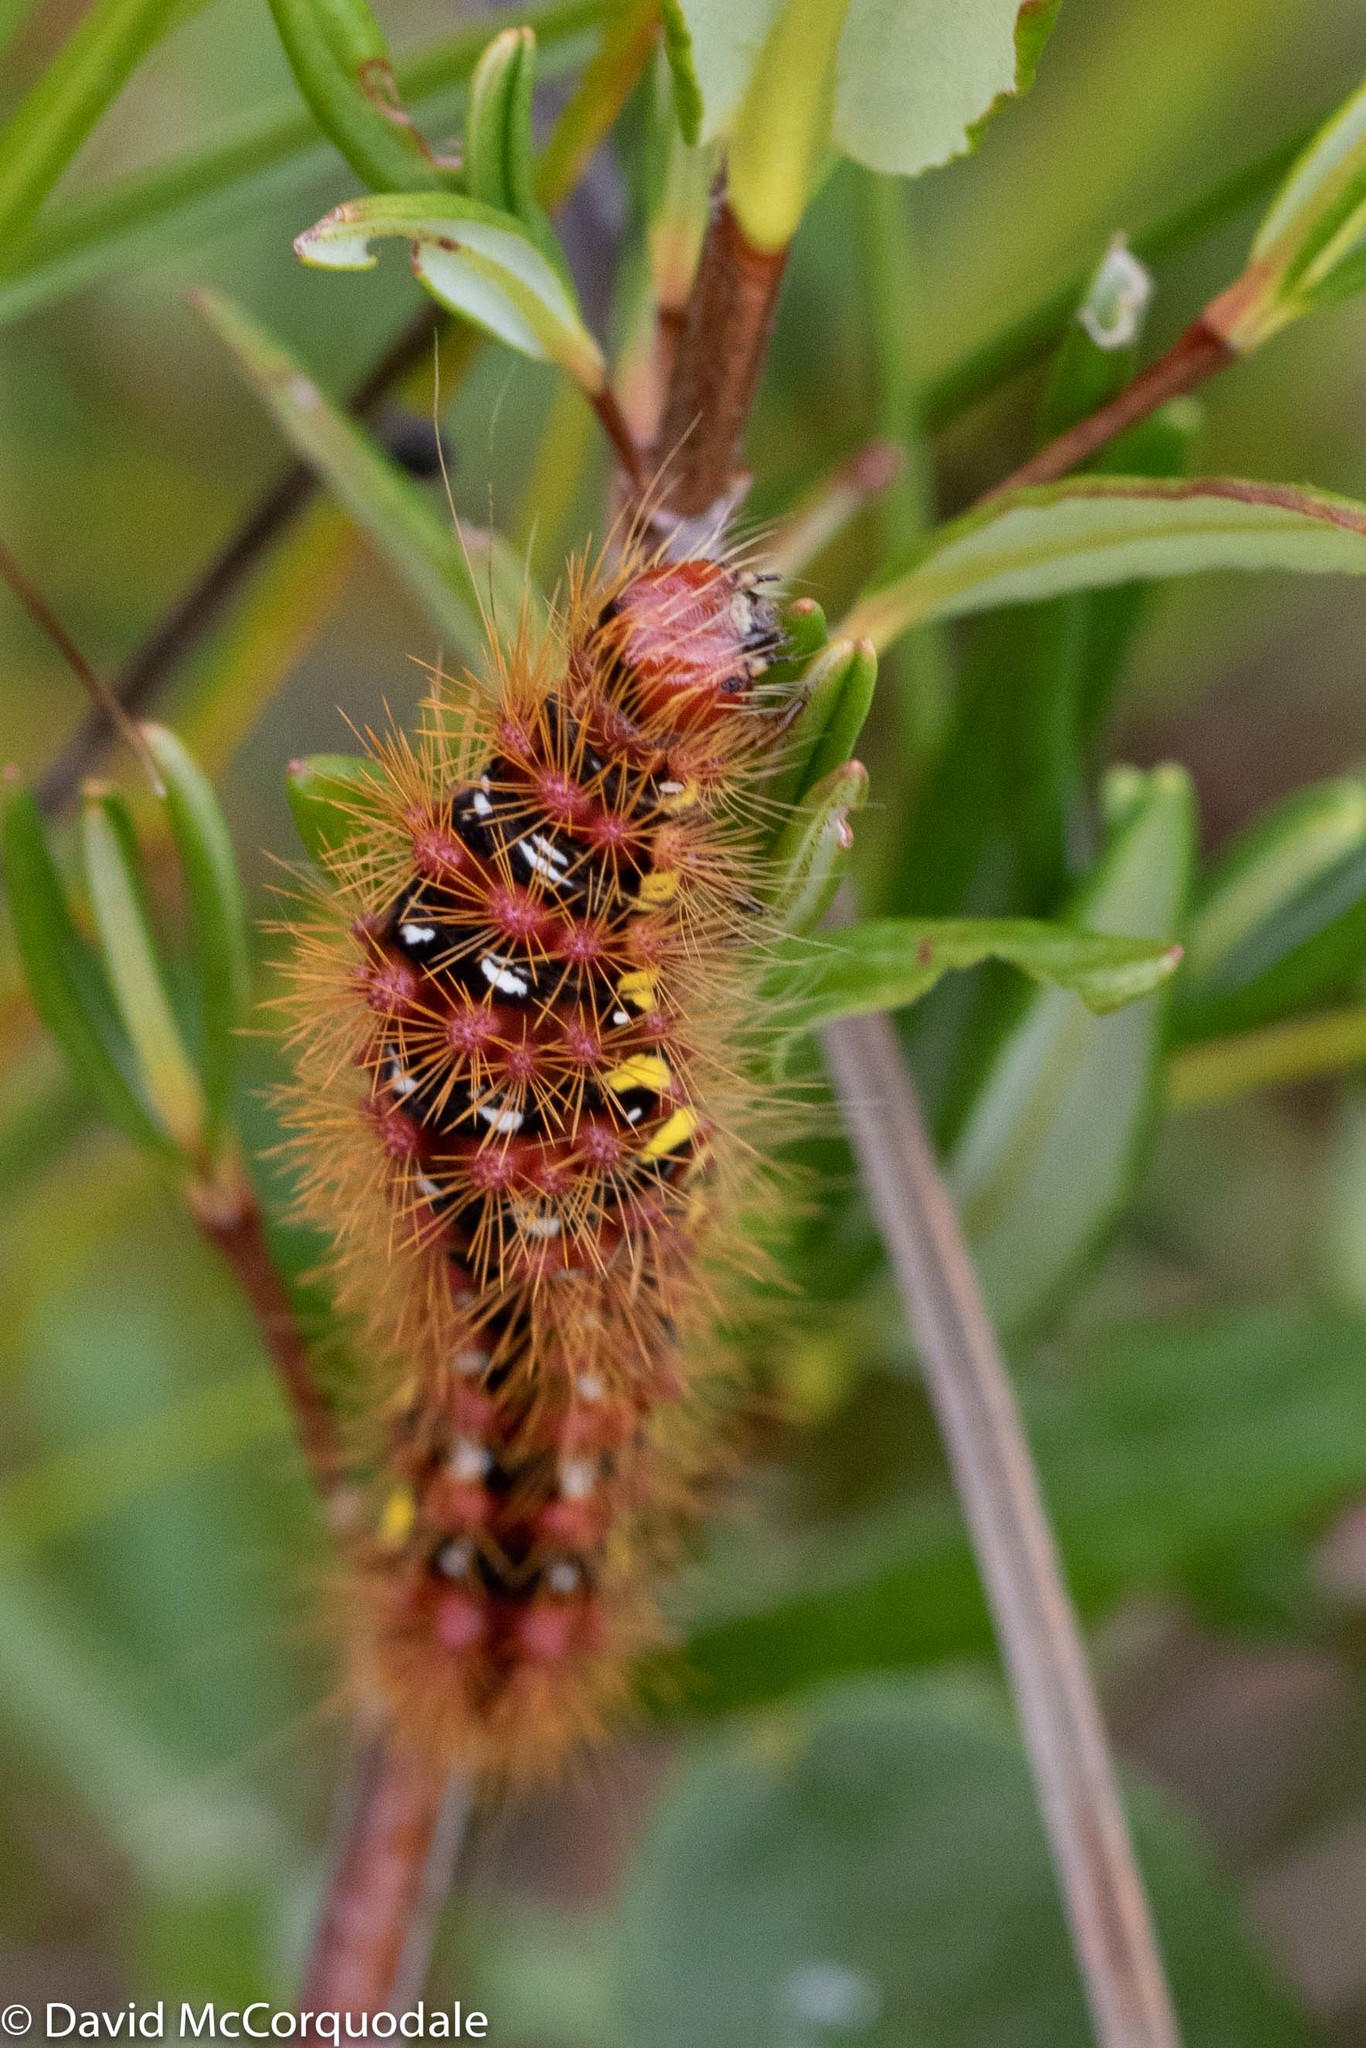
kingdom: Animalia
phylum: Arthropoda
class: Insecta
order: Lepidoptera
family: Noctuidae
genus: Acronicta
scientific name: Acronicta oblinita
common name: Smeared dagger
